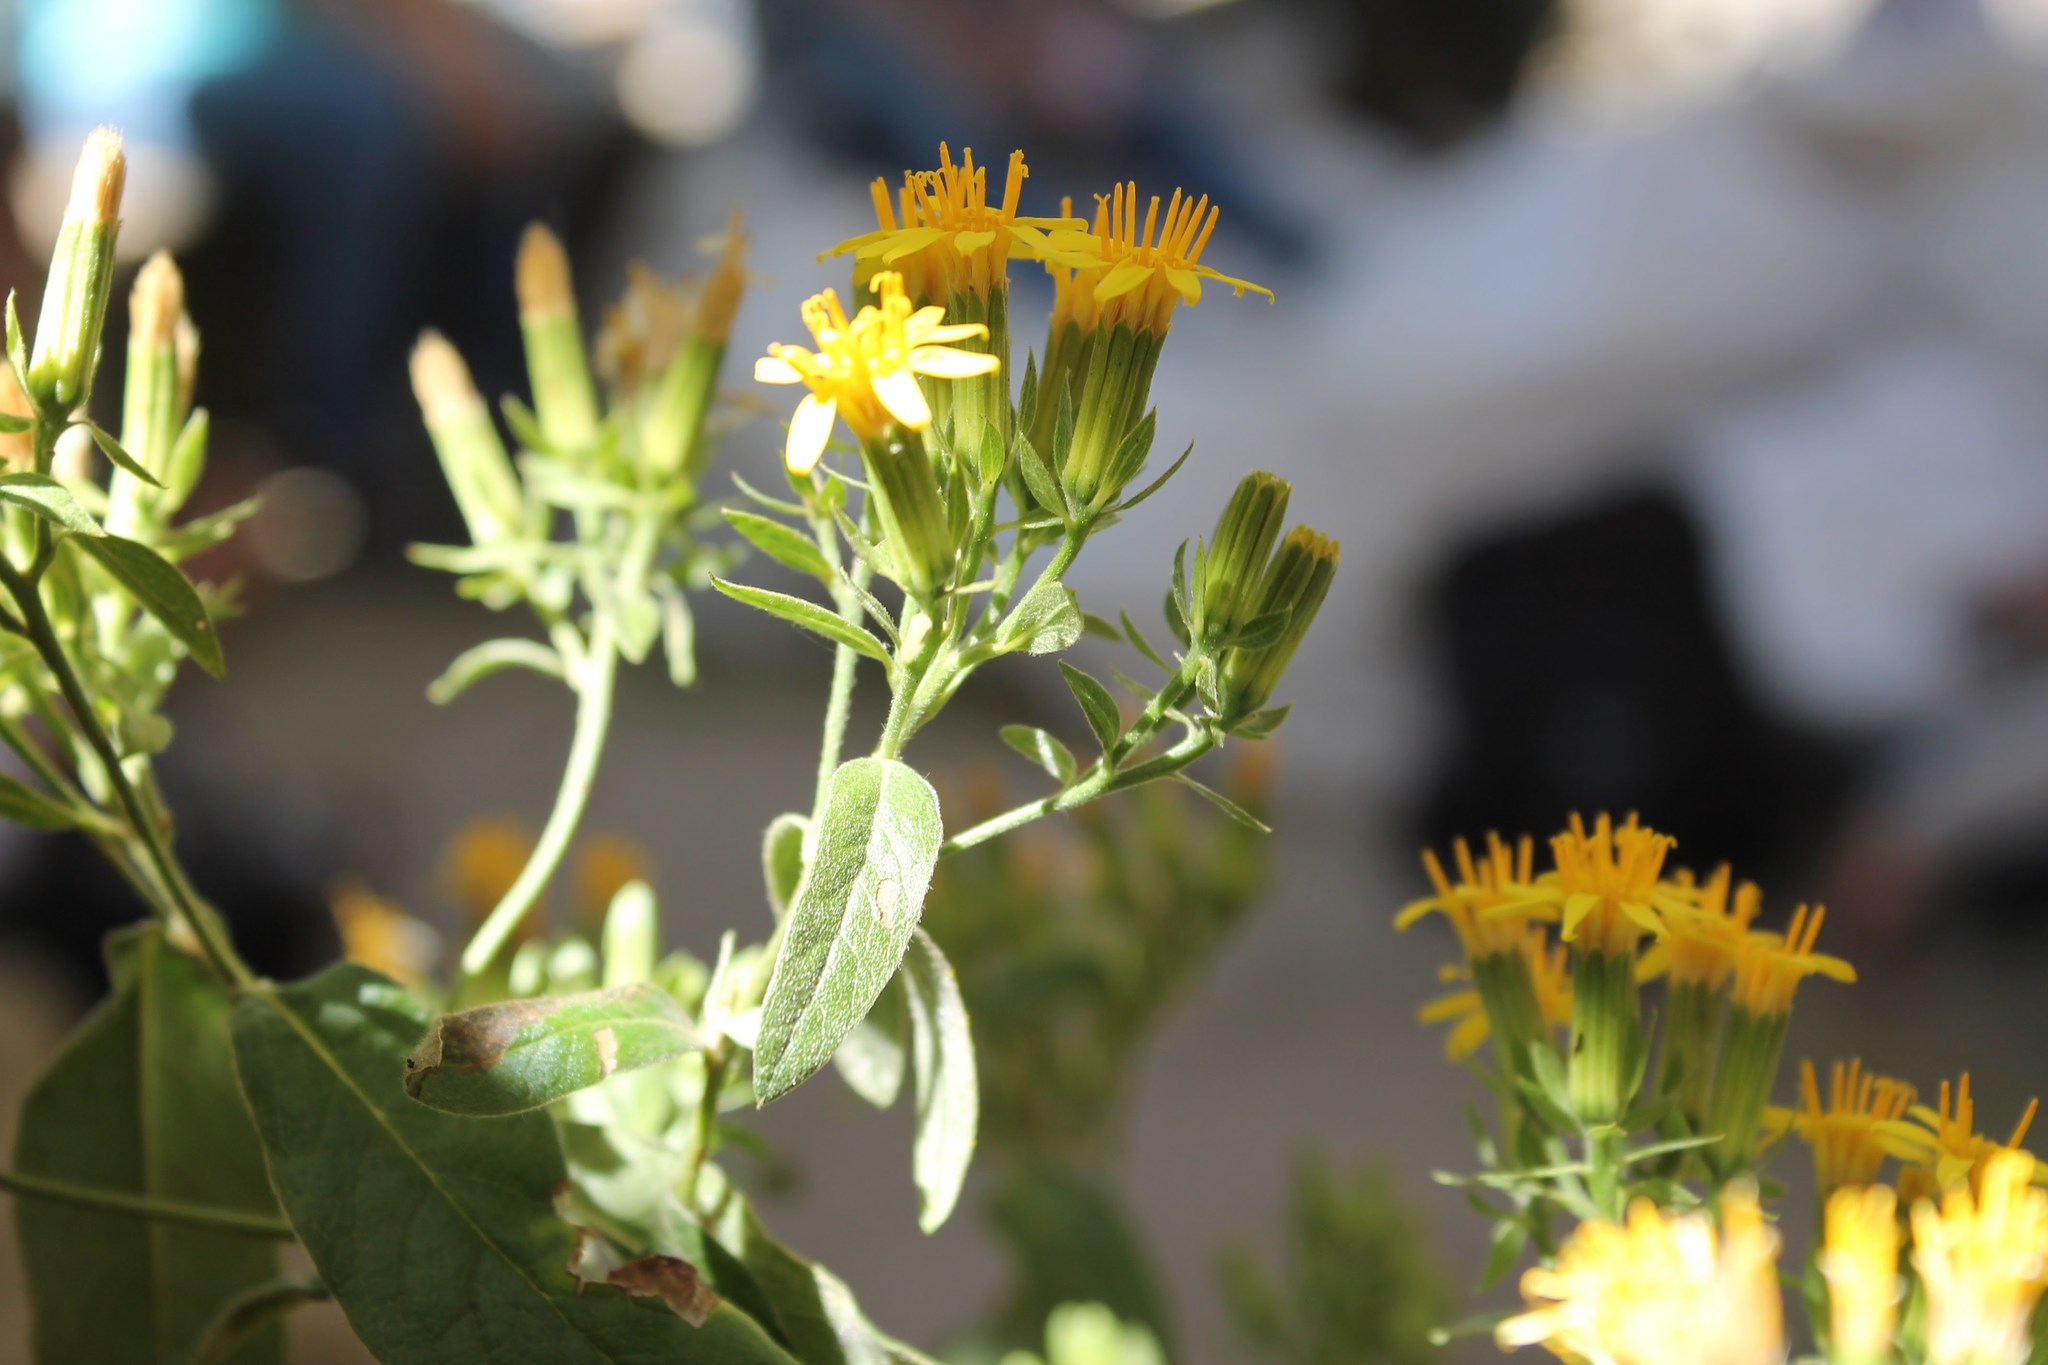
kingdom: Plantae
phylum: Tracheophyta
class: Magnoliopsida
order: Asterales
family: Asteraceae
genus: Trixis
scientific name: Trixis michuacana
